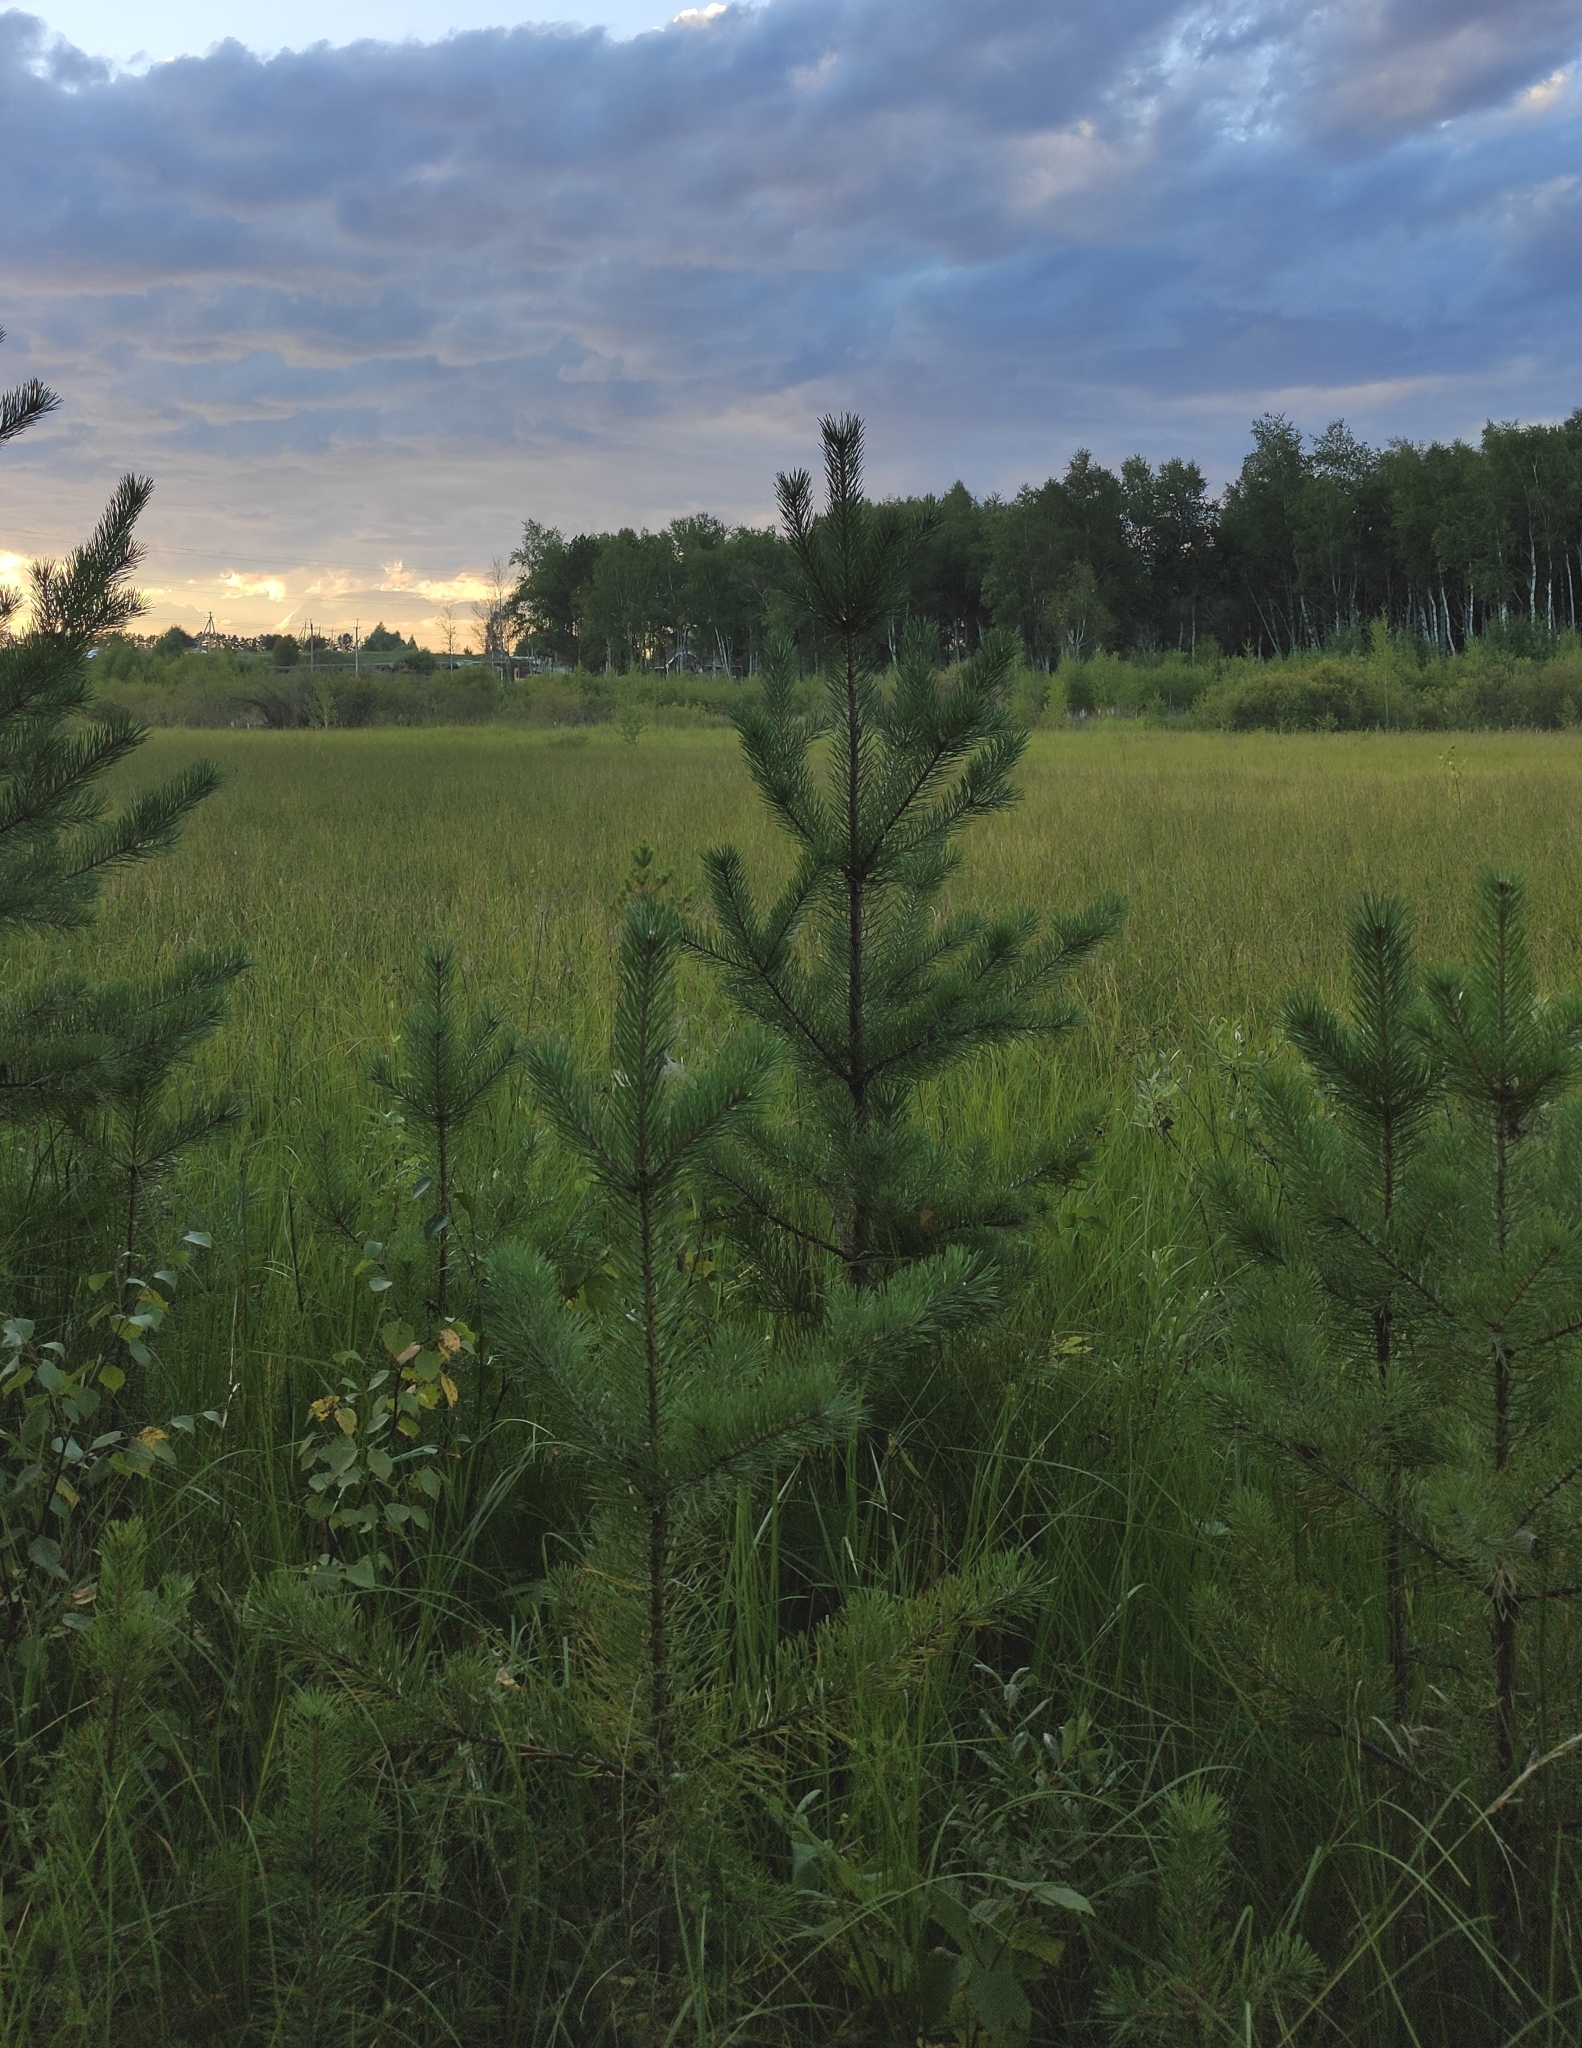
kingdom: Plantae
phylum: Tracheophyta
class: Pinopsida
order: Pinales
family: Pinaceae
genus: Pinus
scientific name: Pinus sylvestris
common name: Scots pine
